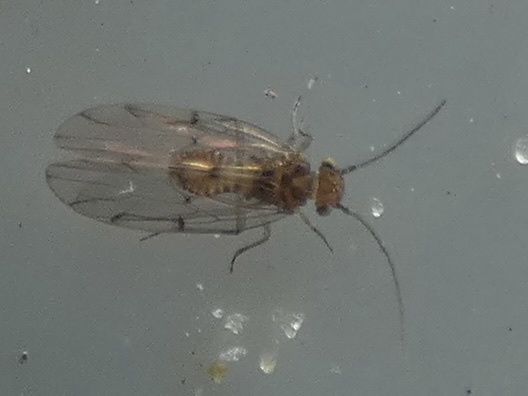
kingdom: Animalia
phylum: Arthropoda
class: Insecta
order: Psocodea
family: Ectopsocidae
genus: Ectopsocus
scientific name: Ectopsocus briggsi
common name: Ectopsocid
